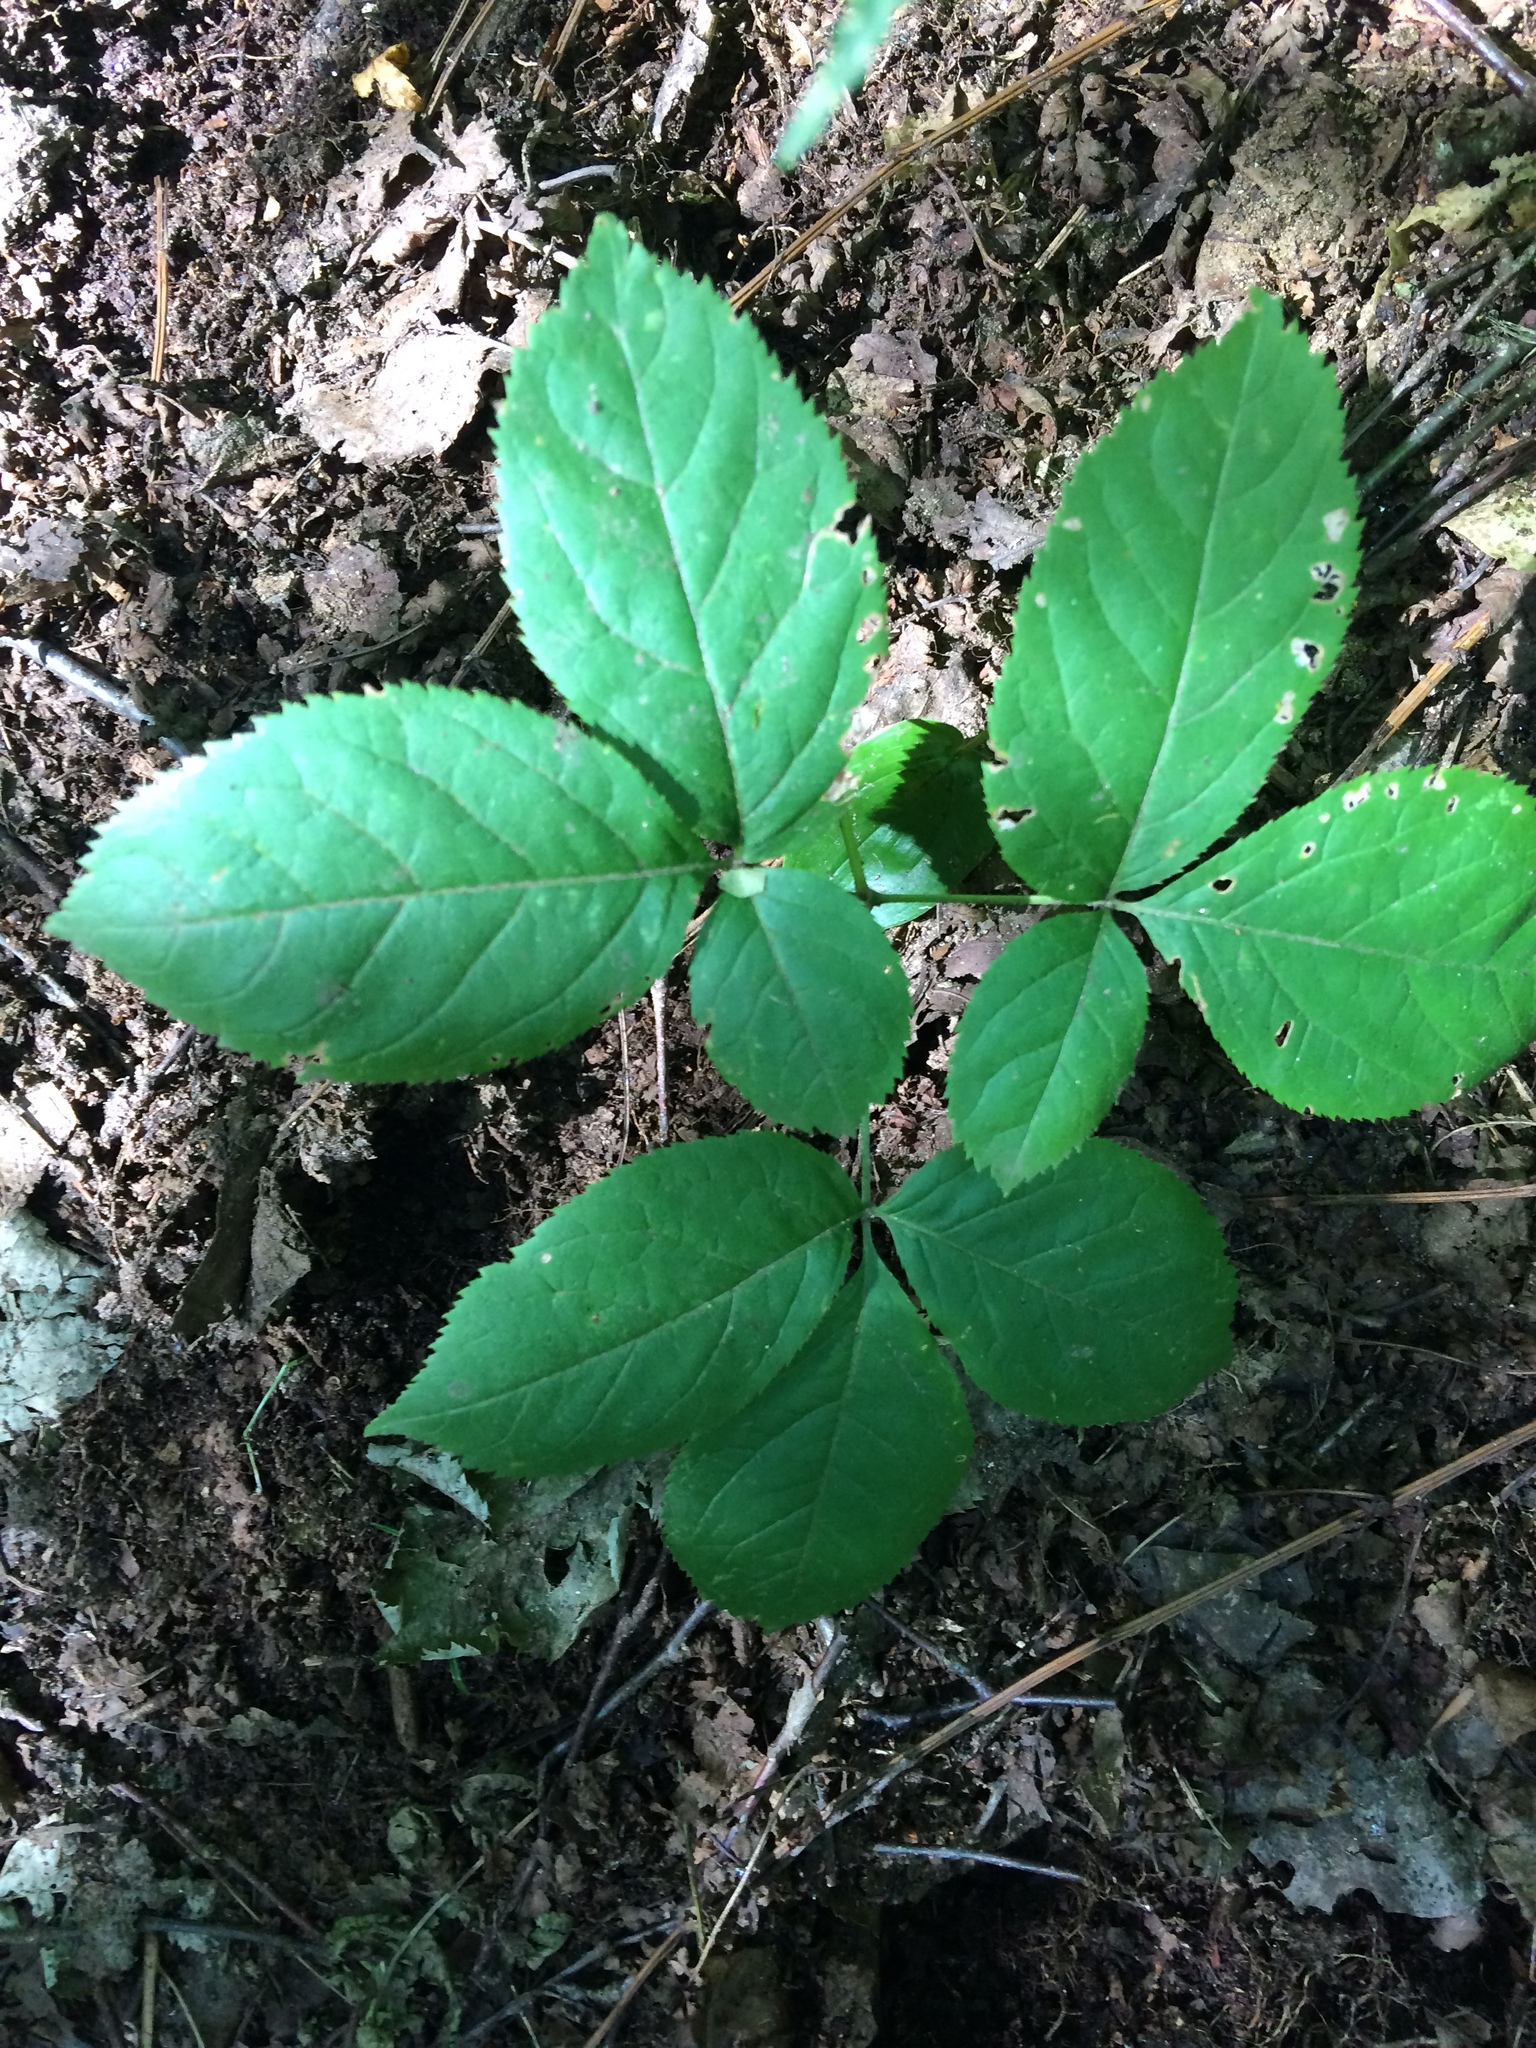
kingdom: Plantae
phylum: Tracheophyta
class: Magnoliopsida
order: Apiales
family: Araliaceae
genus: Aralia
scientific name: Aralia nudicaulis
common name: Wild sarsaparilla
